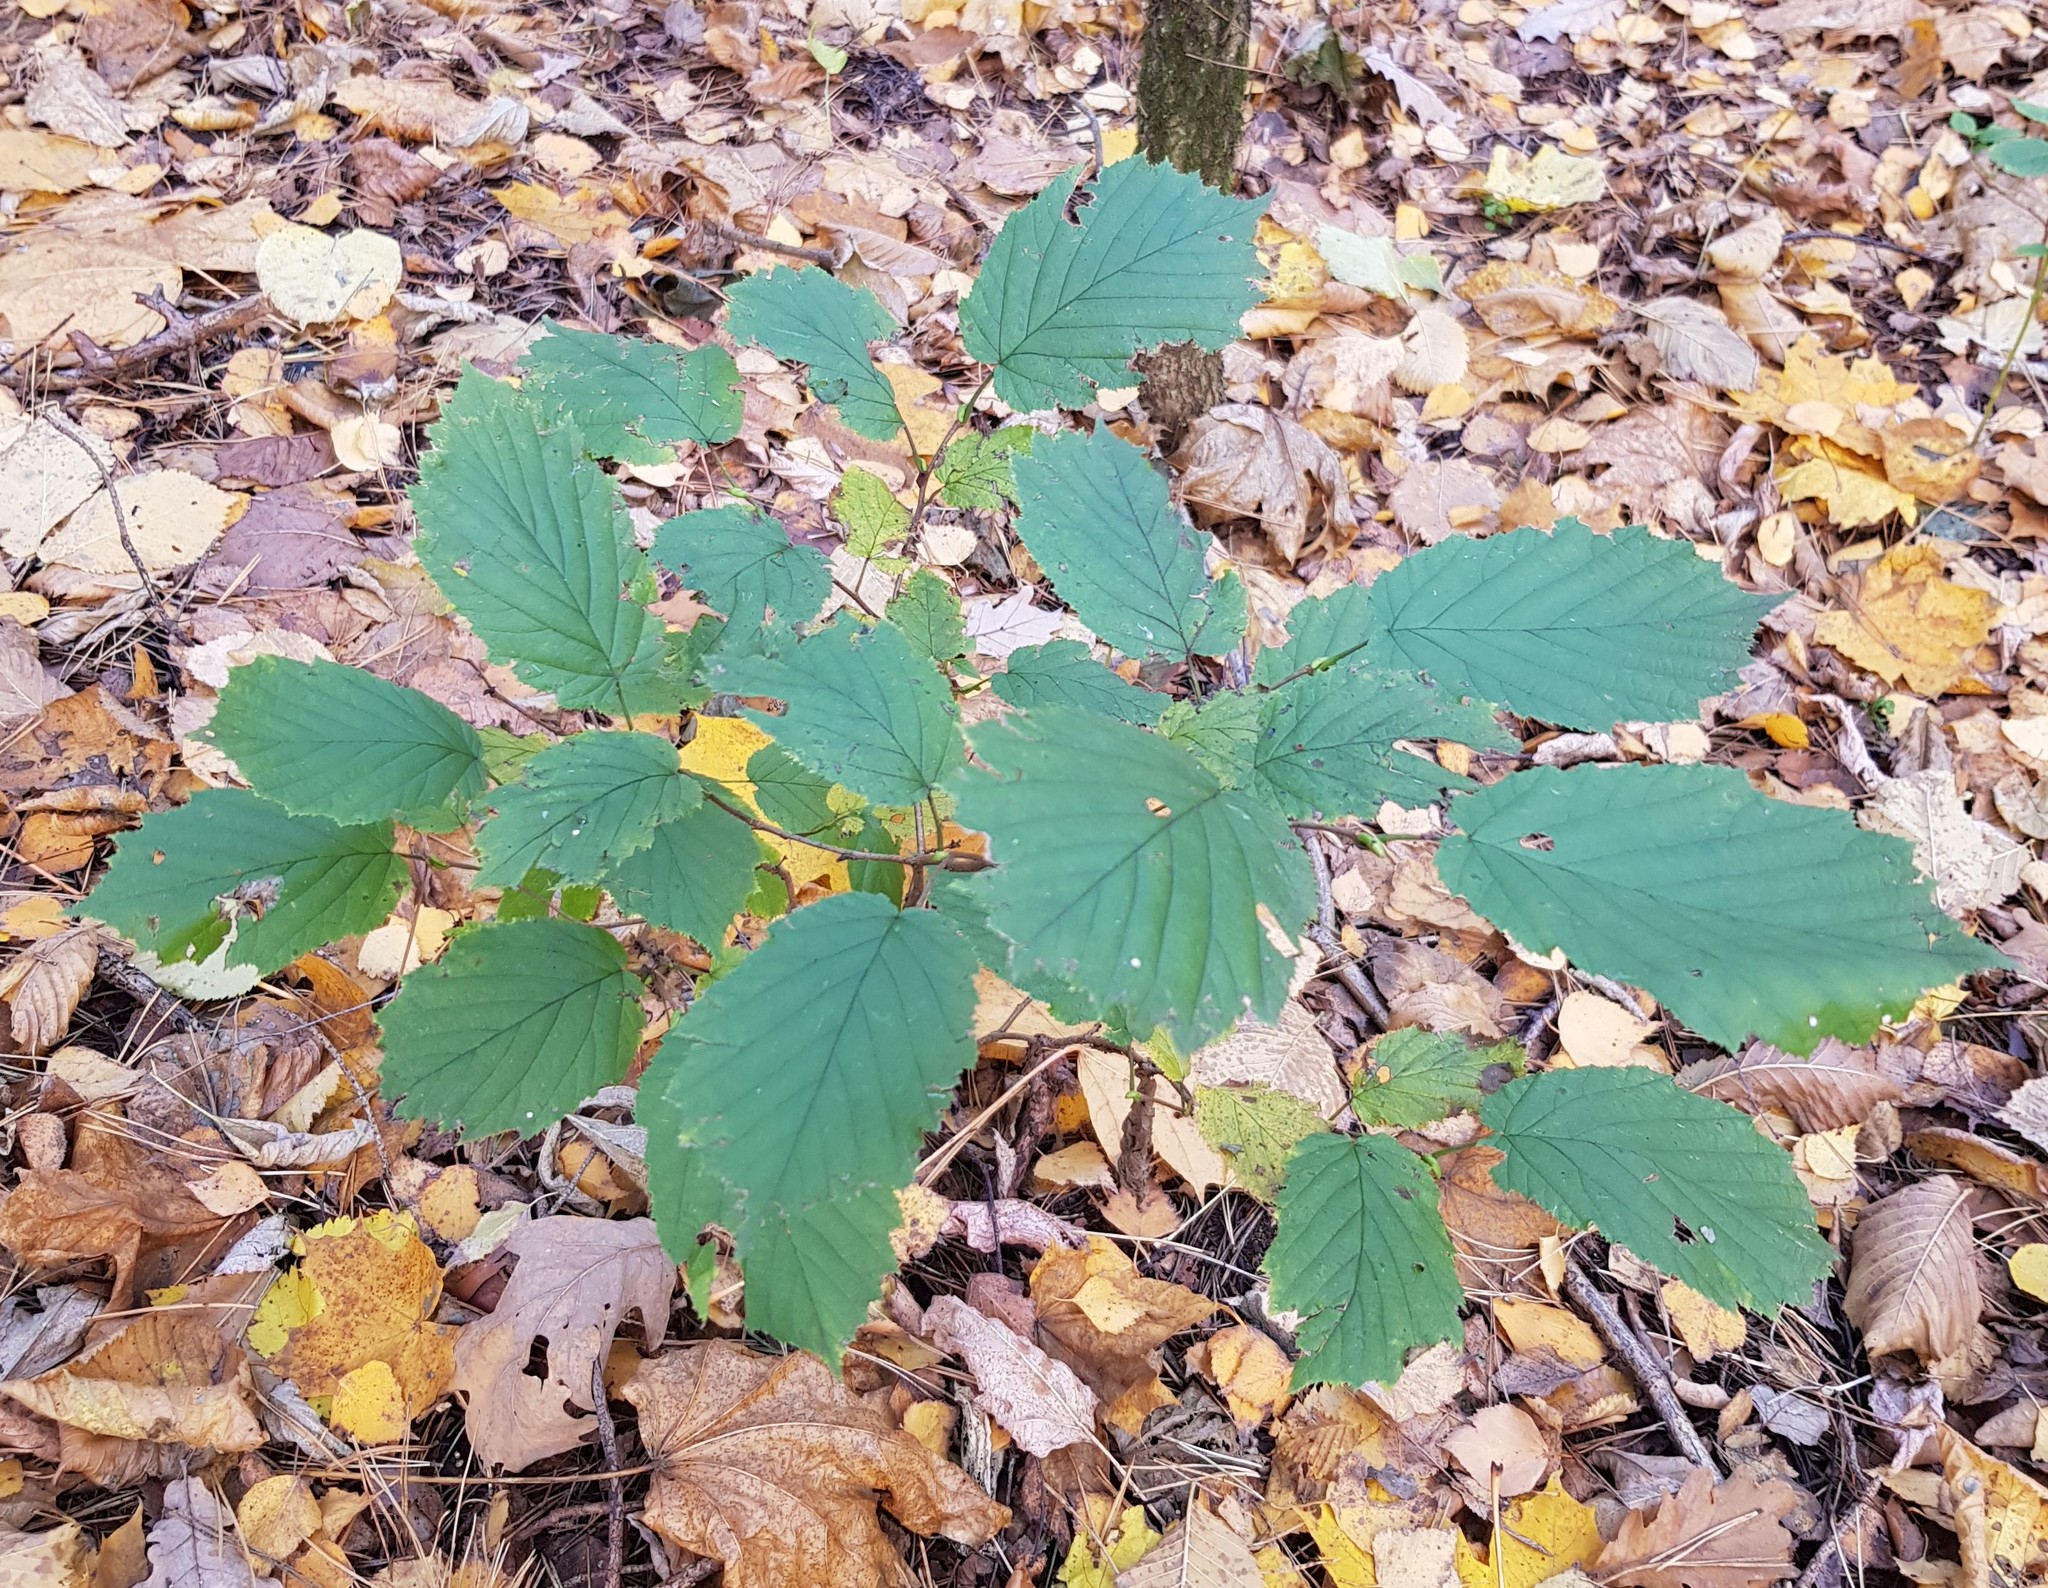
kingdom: Plantae
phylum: Tracheophyta
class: Magnoliopsida
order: Fagales
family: Betulaceae
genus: Corylus
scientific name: Corylus avellana
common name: European hazel
